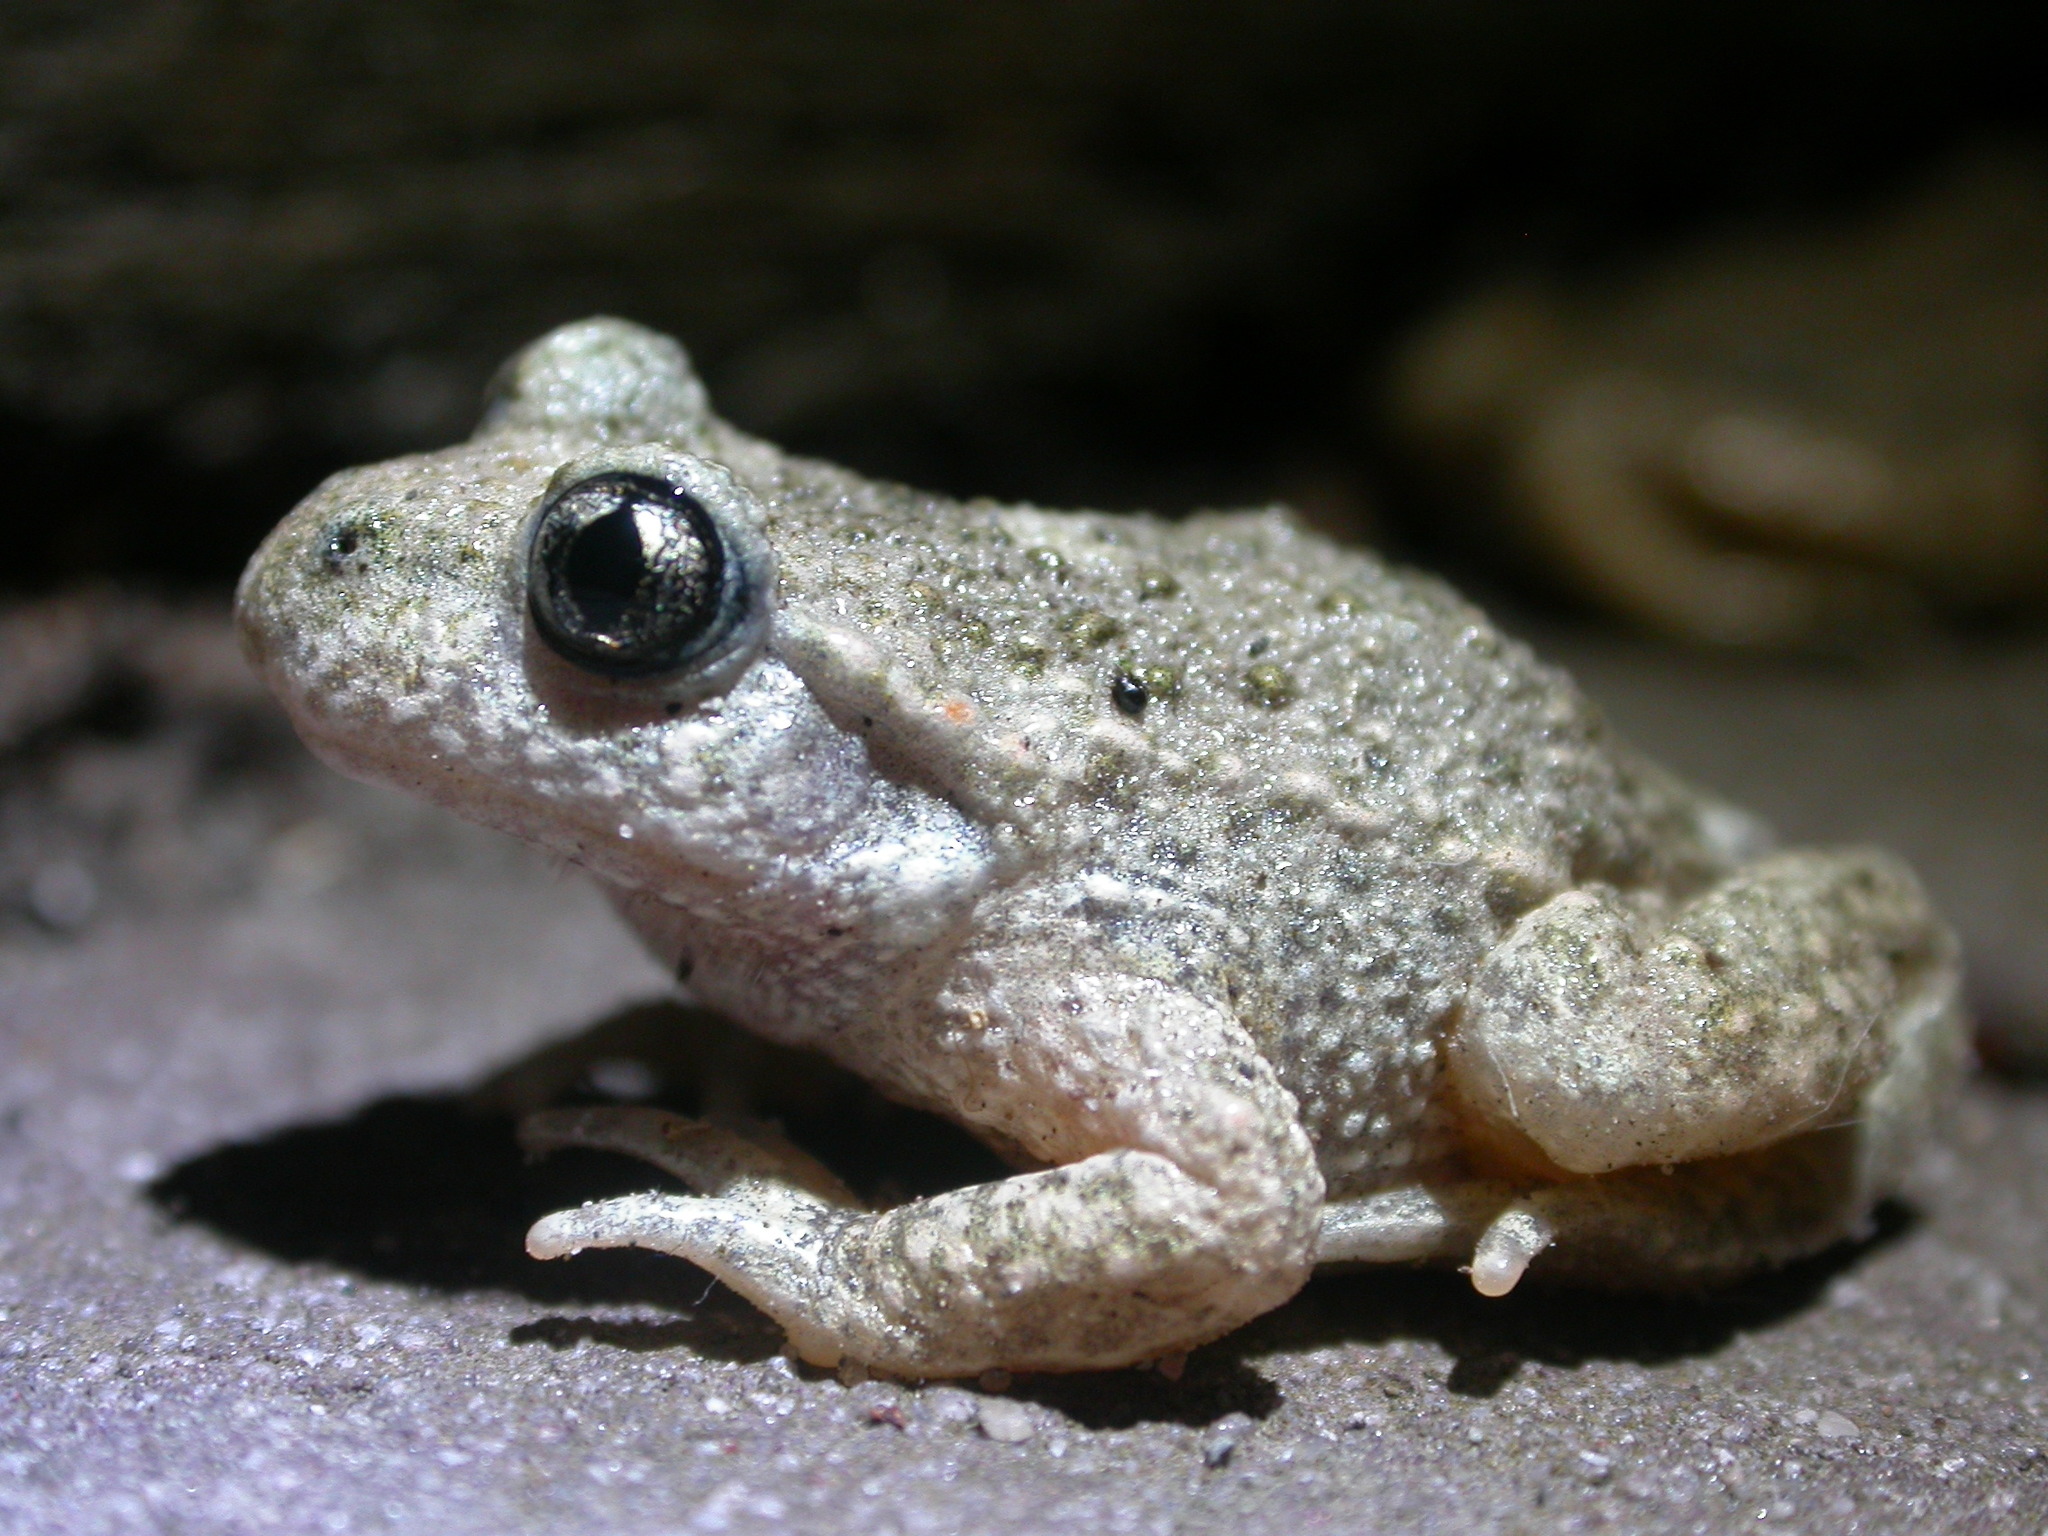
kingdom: Animalia
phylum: Chordata
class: Amphibia
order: Anura
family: Alytidae
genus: Alytes
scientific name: Alytes obstetricans
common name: Midwife toad
